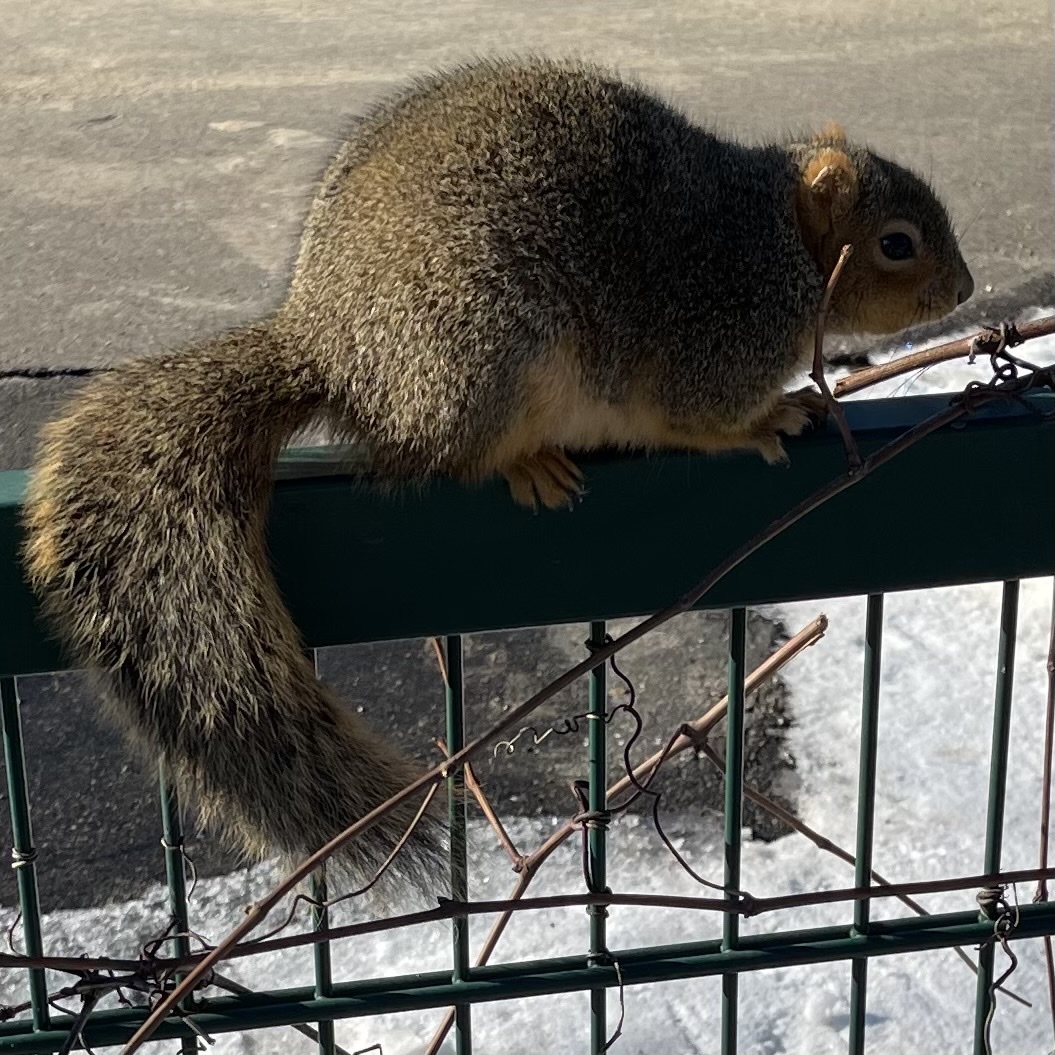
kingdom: Animalia
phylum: Chordata
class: Mammalia
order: Rodentia
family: Sciuridae
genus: Sciurus
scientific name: Sciurus niger
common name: Fox squirrel
